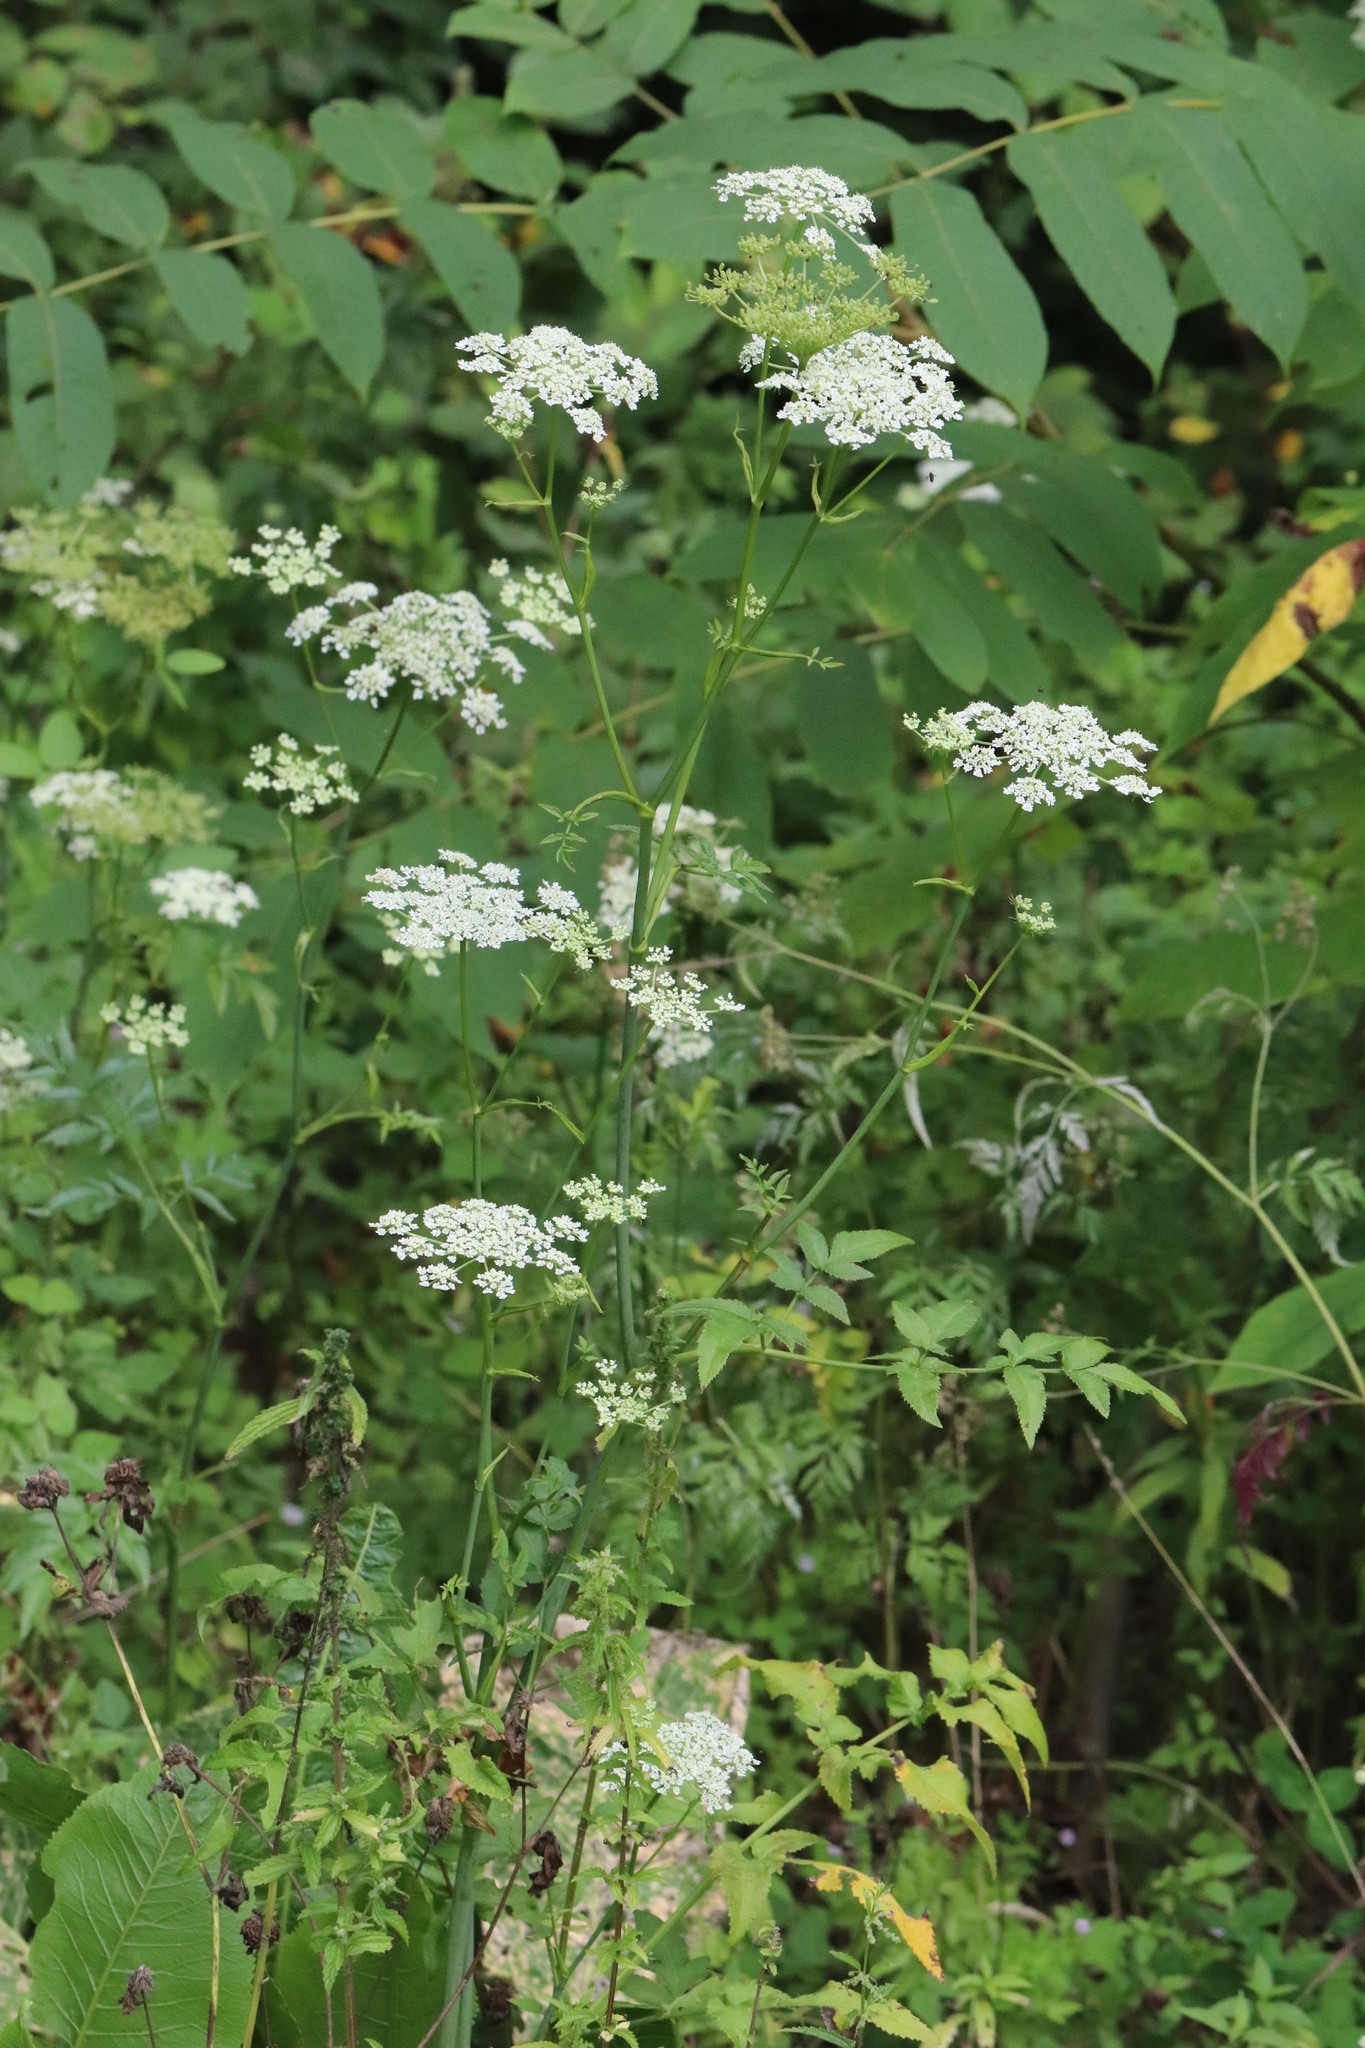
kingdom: Plantae
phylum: Tracheophyta
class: Magnoliopsida
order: Apiales
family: Apiaceae
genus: Angelica
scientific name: Angelica czernaevia
